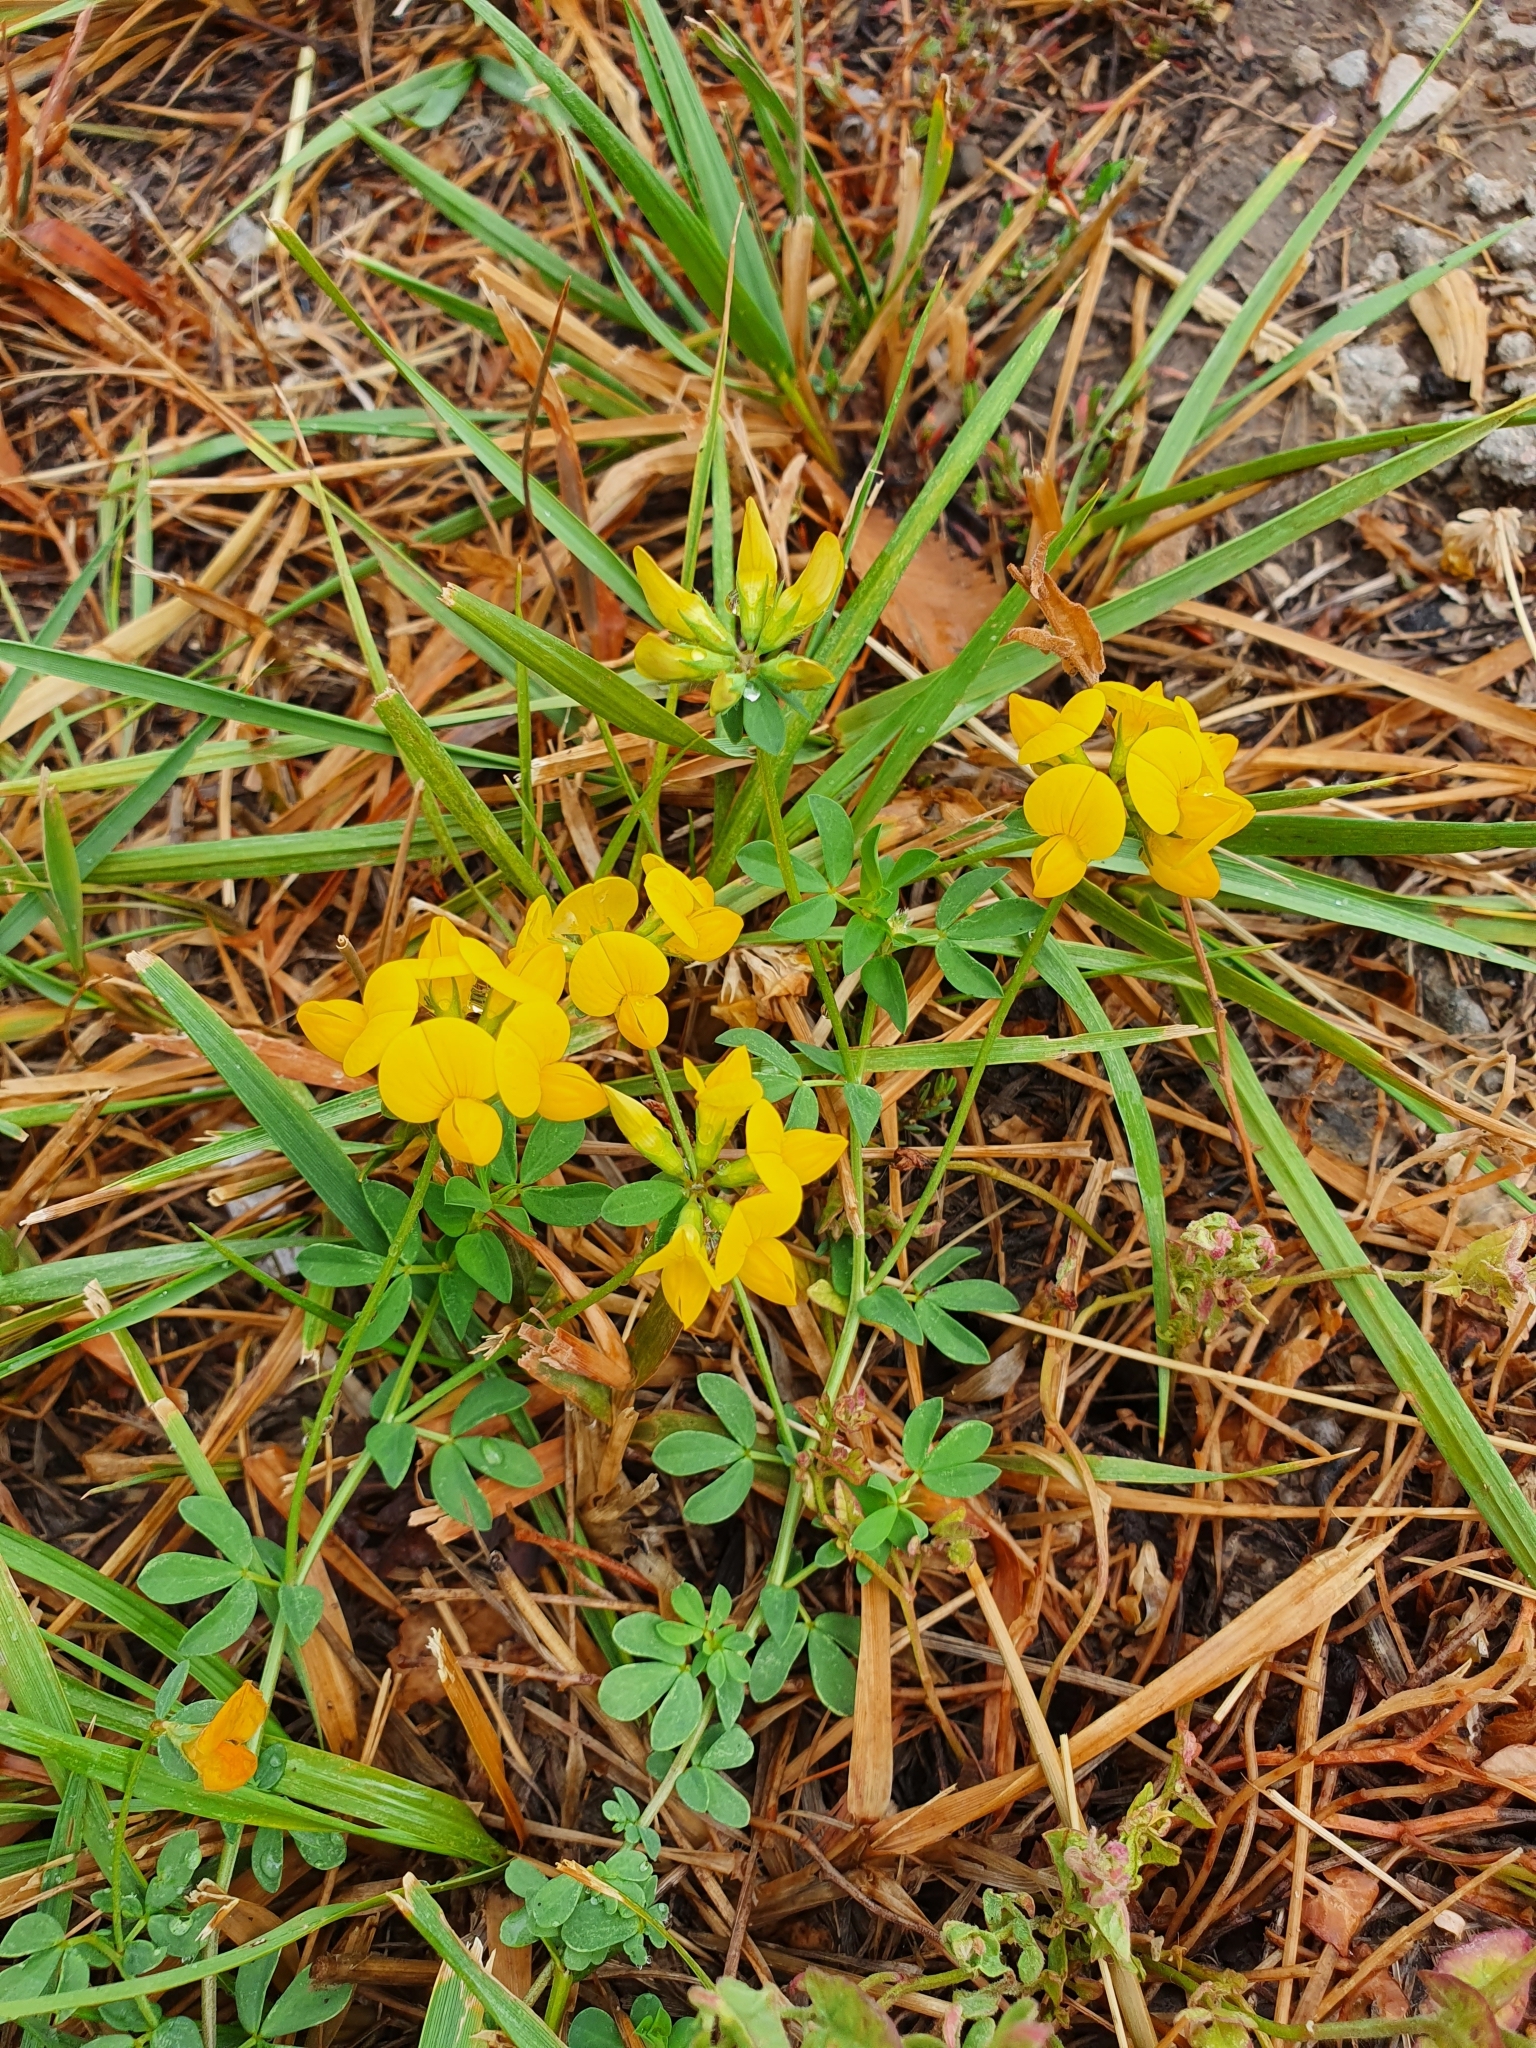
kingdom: Plantae
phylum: Tracheophyta
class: Magnoliopsida
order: Fabales
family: Fabaceae
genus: Lotus
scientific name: Lotus corniculatus
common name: Common bird's-foot-trefoil
